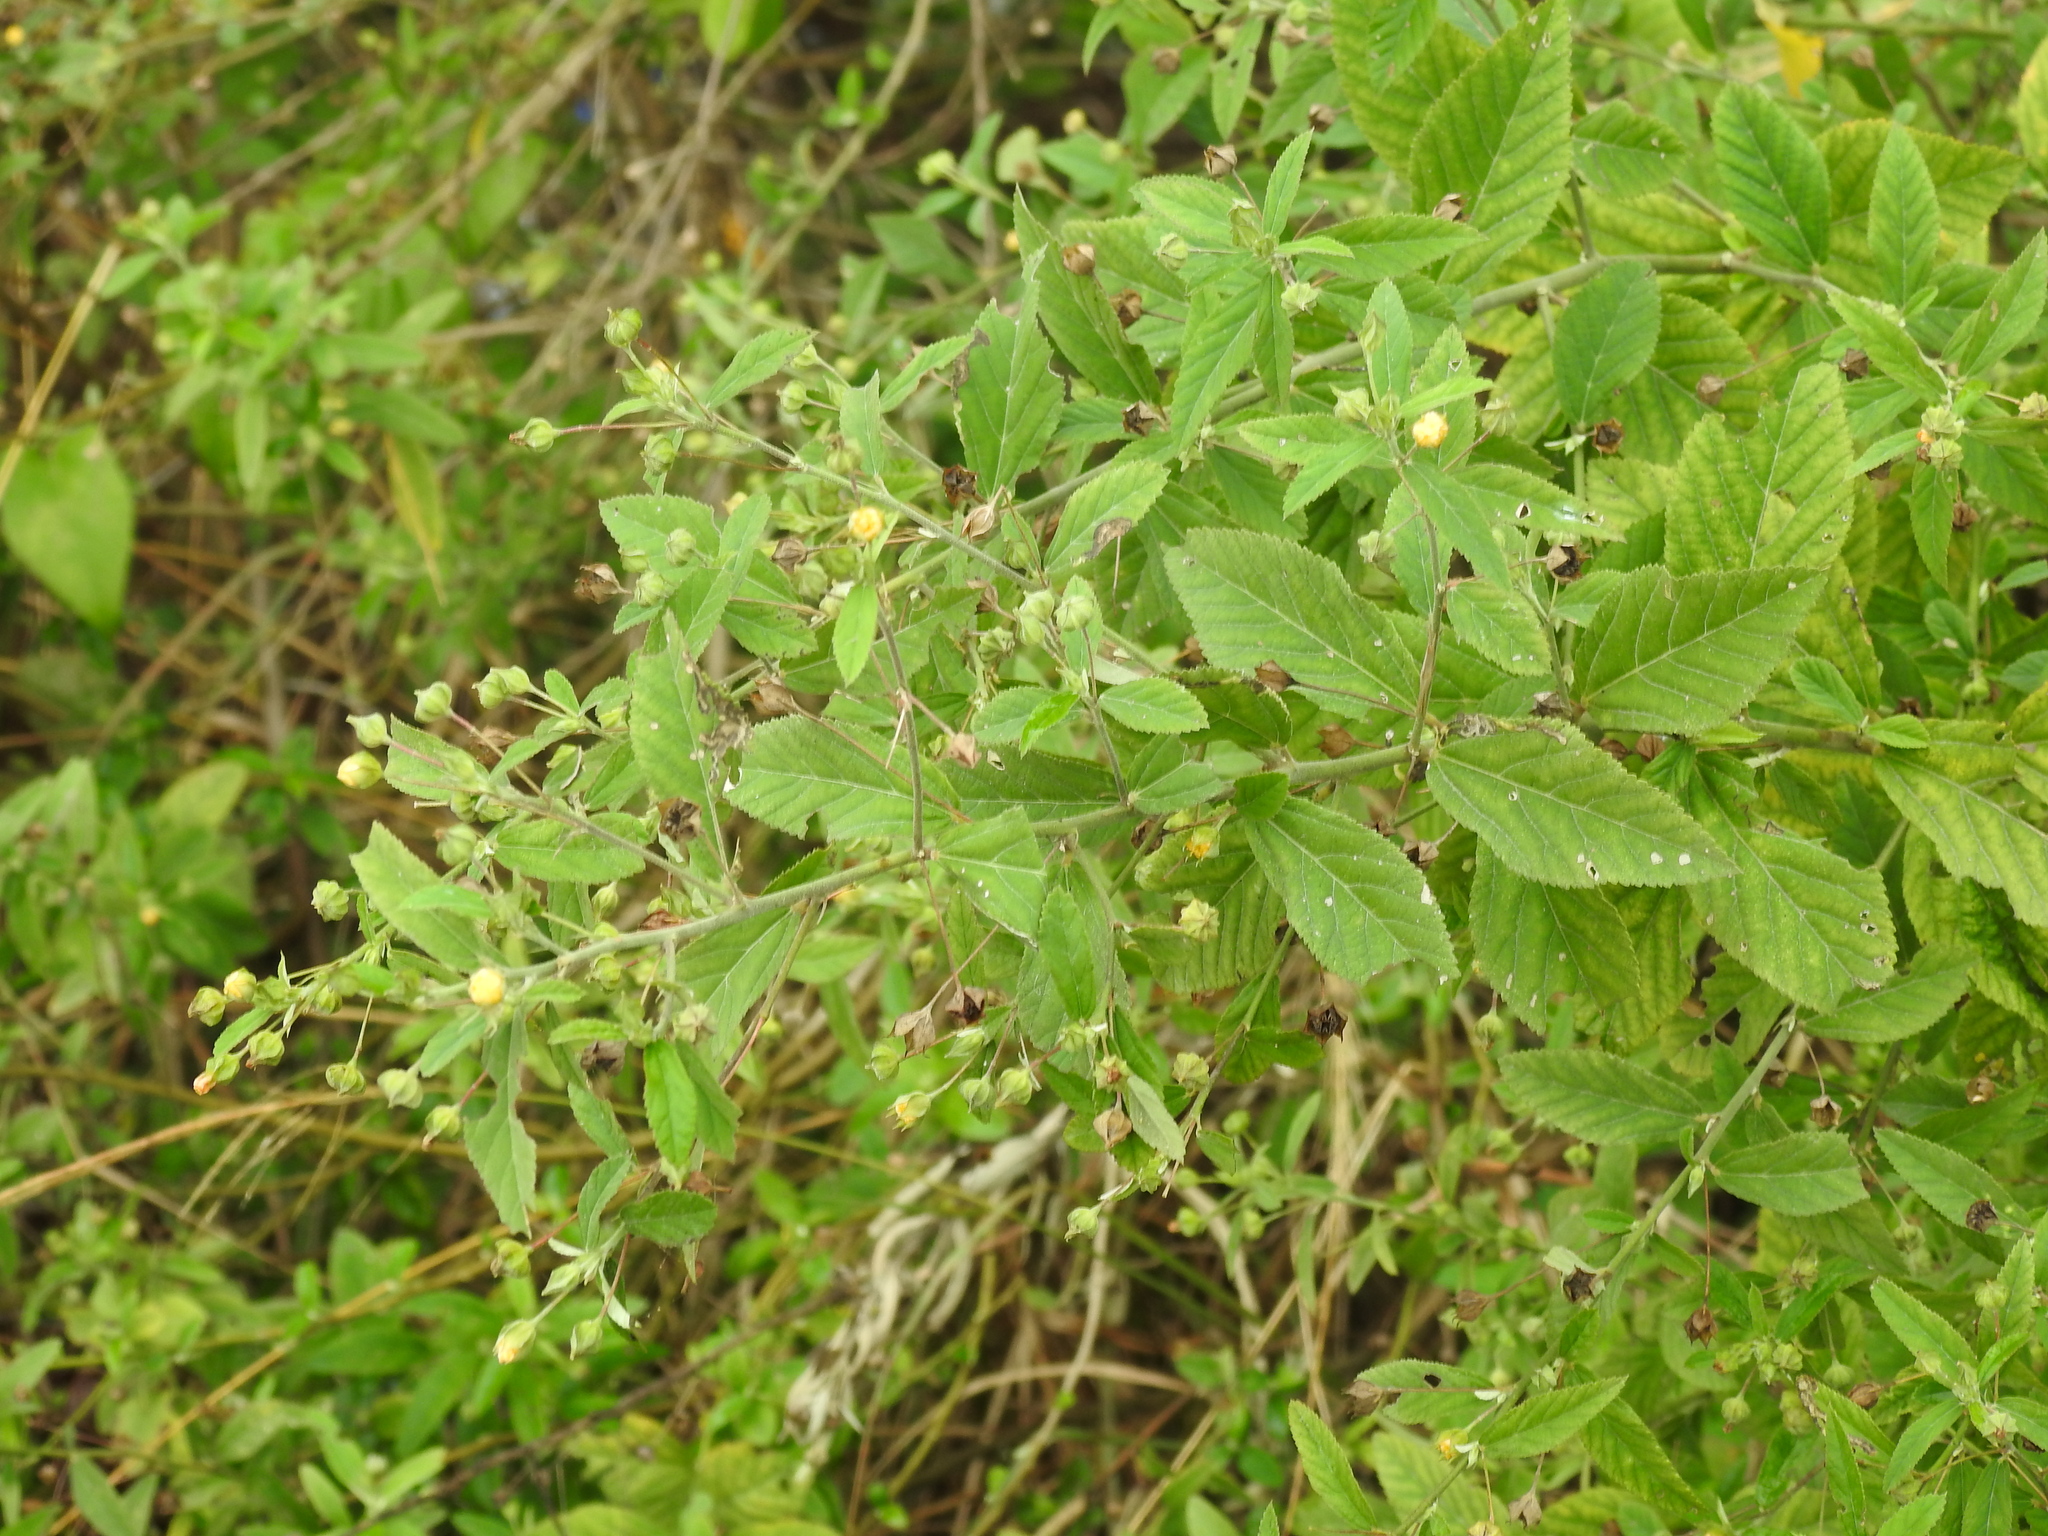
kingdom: Plantae
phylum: Tracheophyta
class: Magnoliopsida
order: Malvales
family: Malvaceae
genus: Sida
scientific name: Sida rhombifolia
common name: Queensland-hemp
